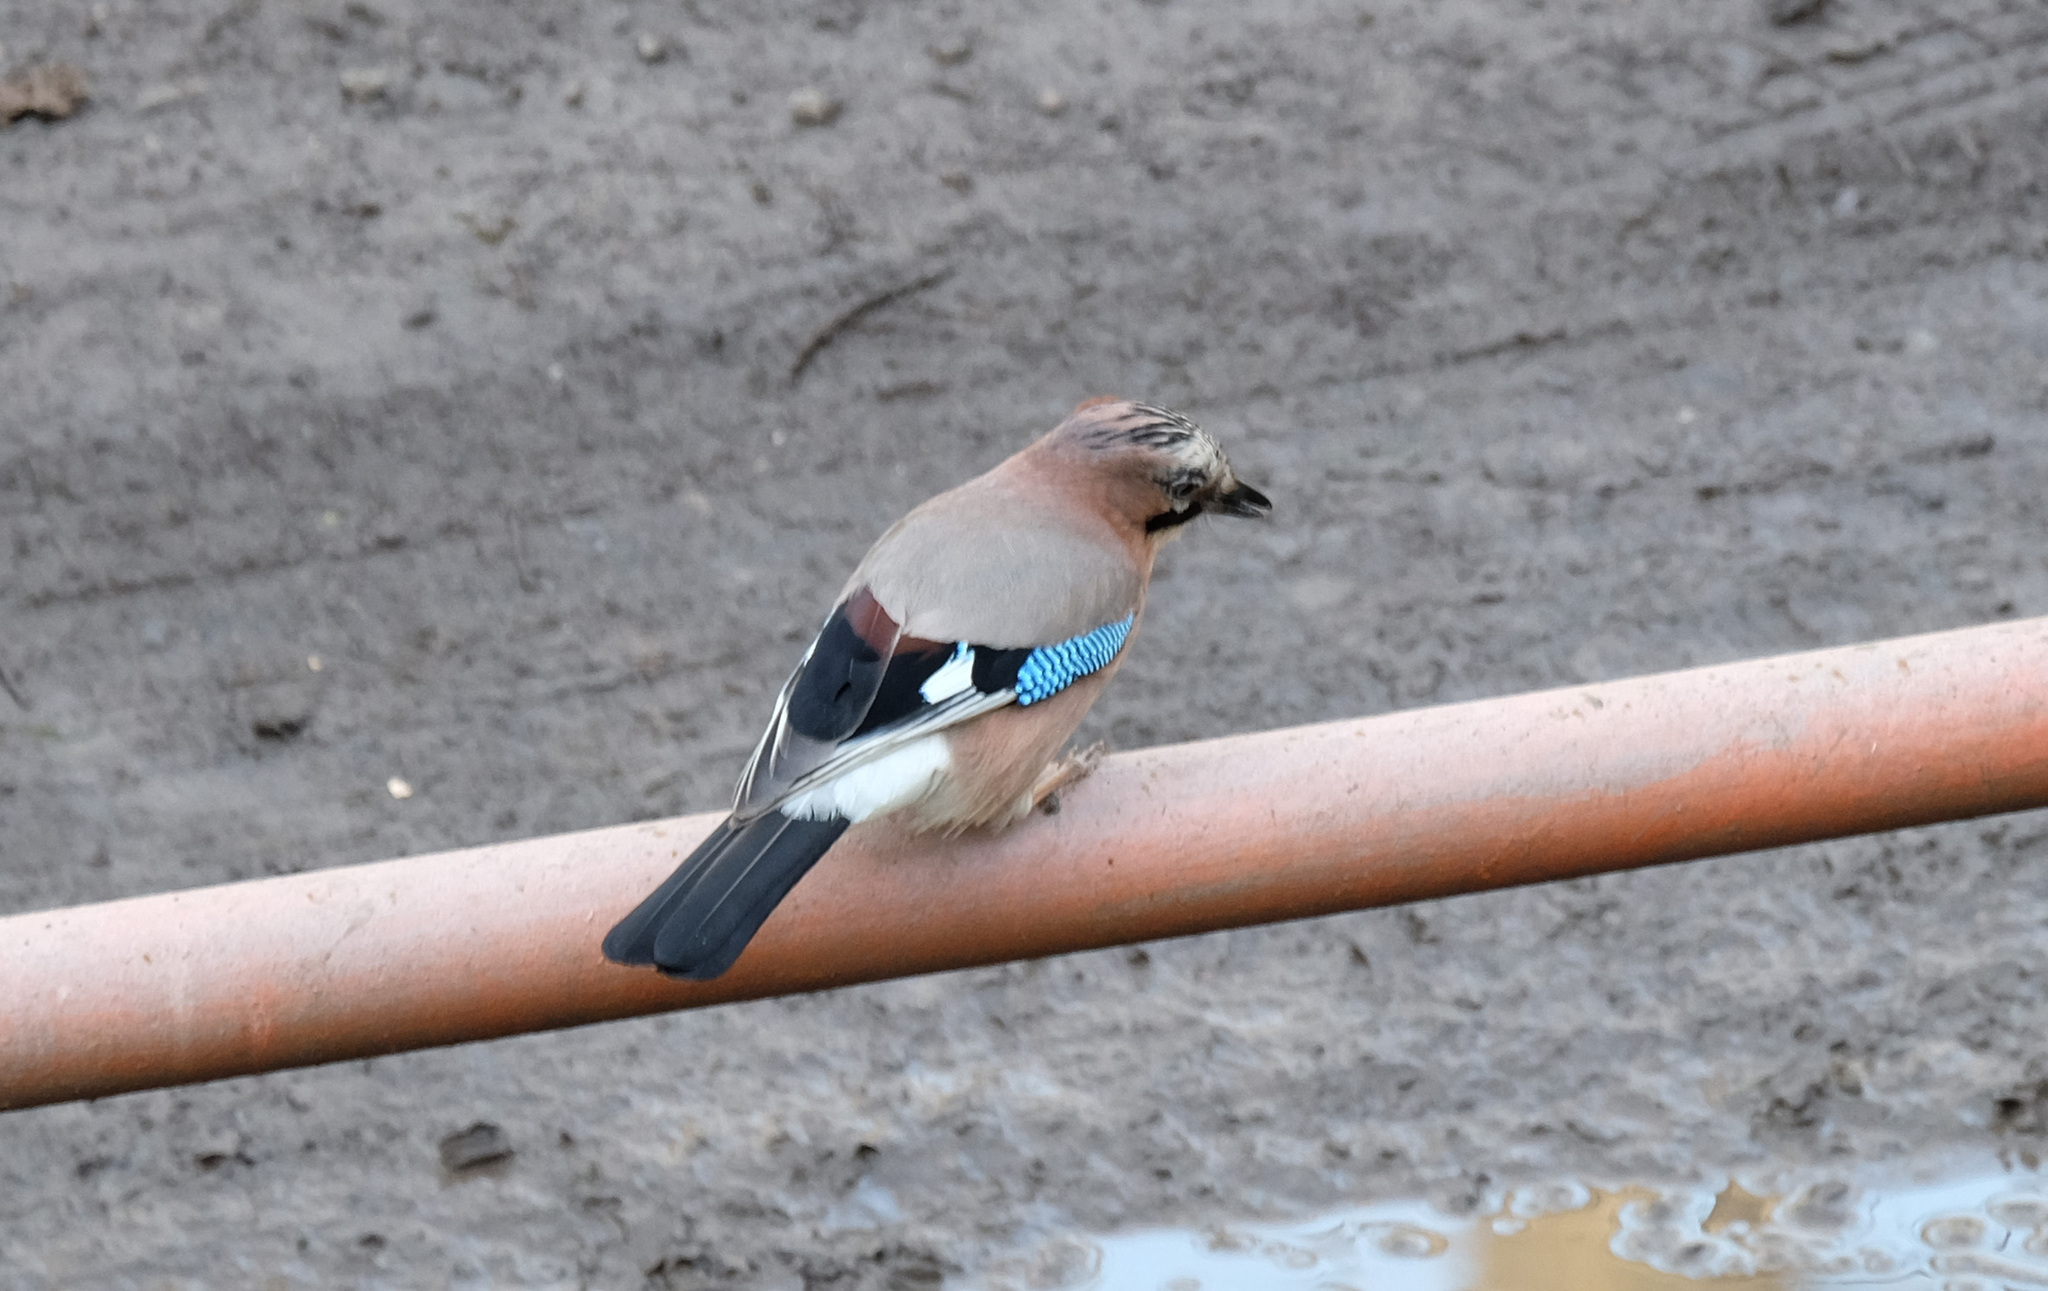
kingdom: Animalia
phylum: Chordata
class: Aves
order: Passeriformes
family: Corvidae
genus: Garrulus
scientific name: Garrulus glandarius
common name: Eurasian jay
